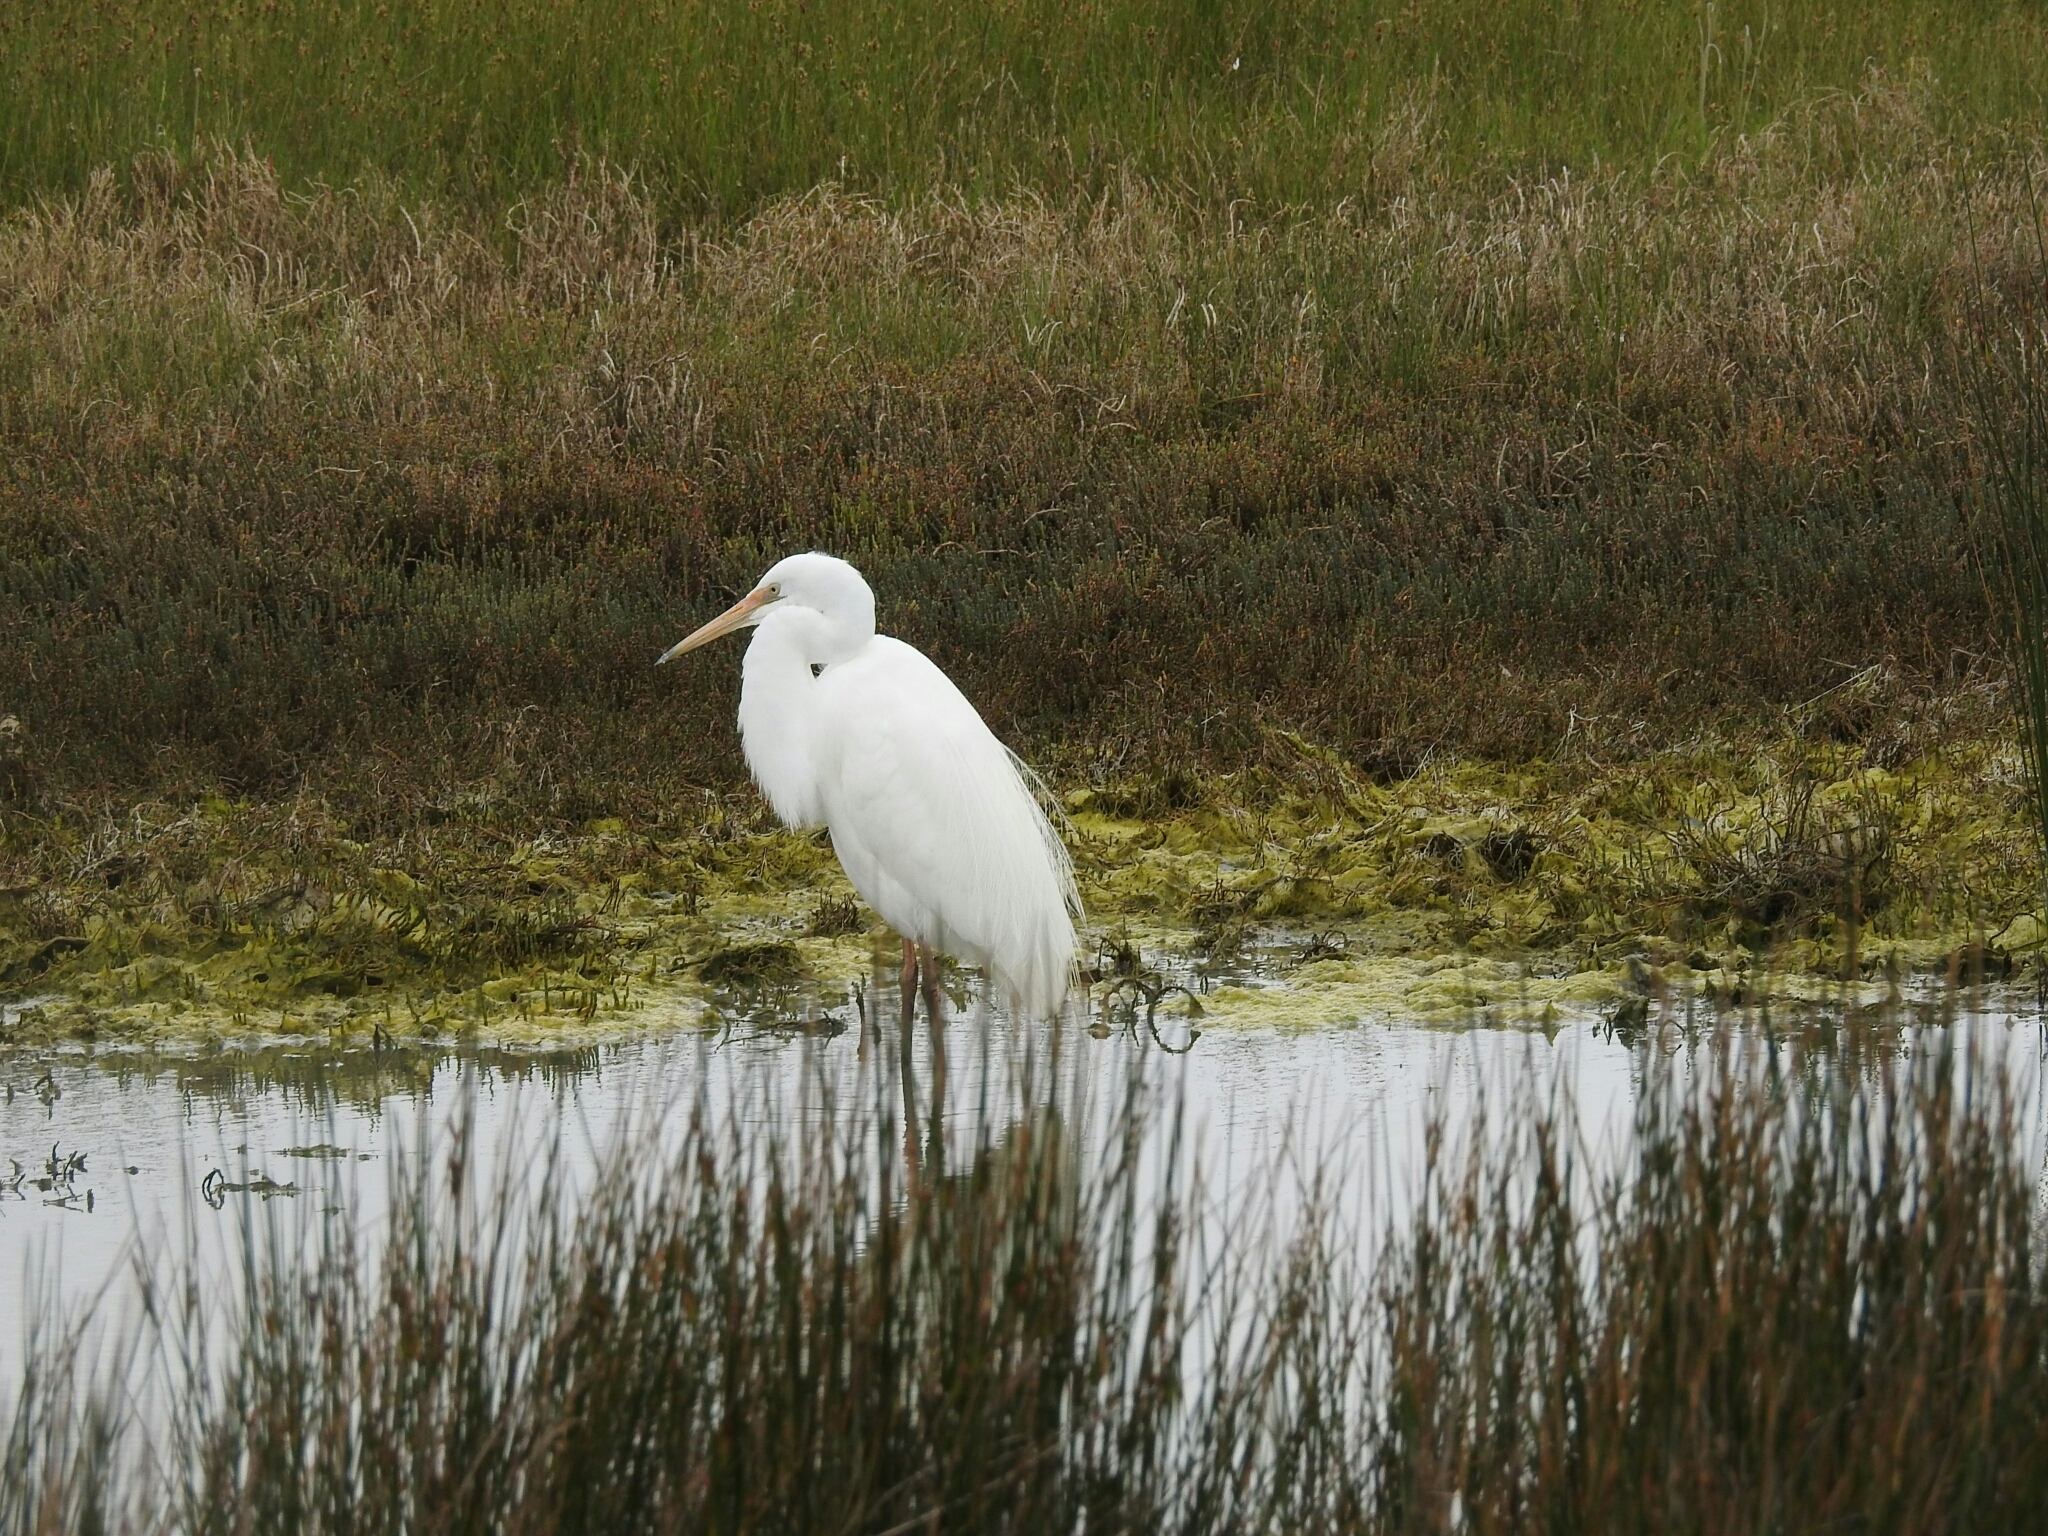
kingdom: Animalia
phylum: Chordata
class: Aves
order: Pelecaniformes
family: Ardeidae
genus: Ardea
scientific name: Ardea modesta
